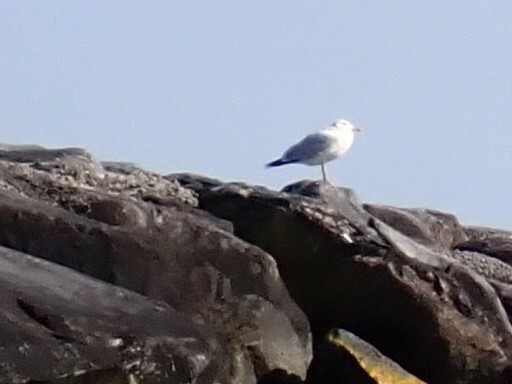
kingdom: Animalia
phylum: Chordata
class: Aves
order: Charadriiformes
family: Laridae
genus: Larus
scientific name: Larus smithsonianus
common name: American herring gull
